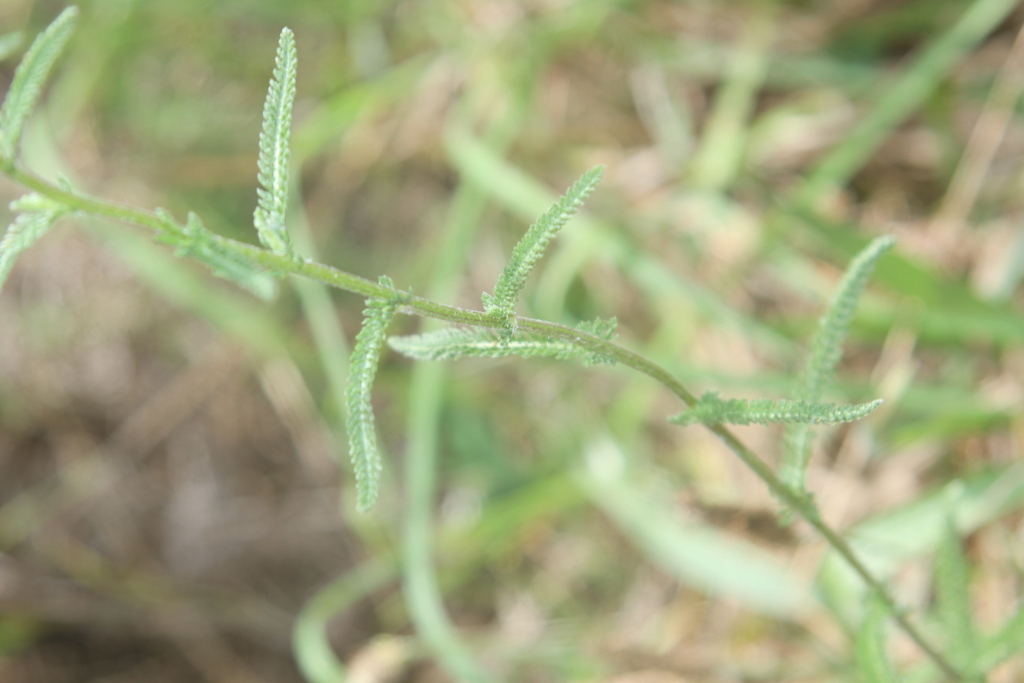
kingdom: Plantae
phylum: Tracheophyta
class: Magnoliopsida
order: Asterales
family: Asteraceae
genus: Achillea
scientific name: Achillea millefolium
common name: Yarrow
